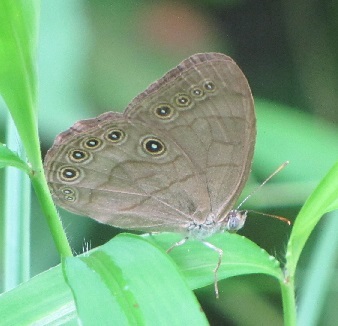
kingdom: Animalia
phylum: Arthropoda
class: Insecta
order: Lepidoptera
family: Nymphalidae
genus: Lethe
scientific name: Lethe eurydice
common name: Eyed brown
